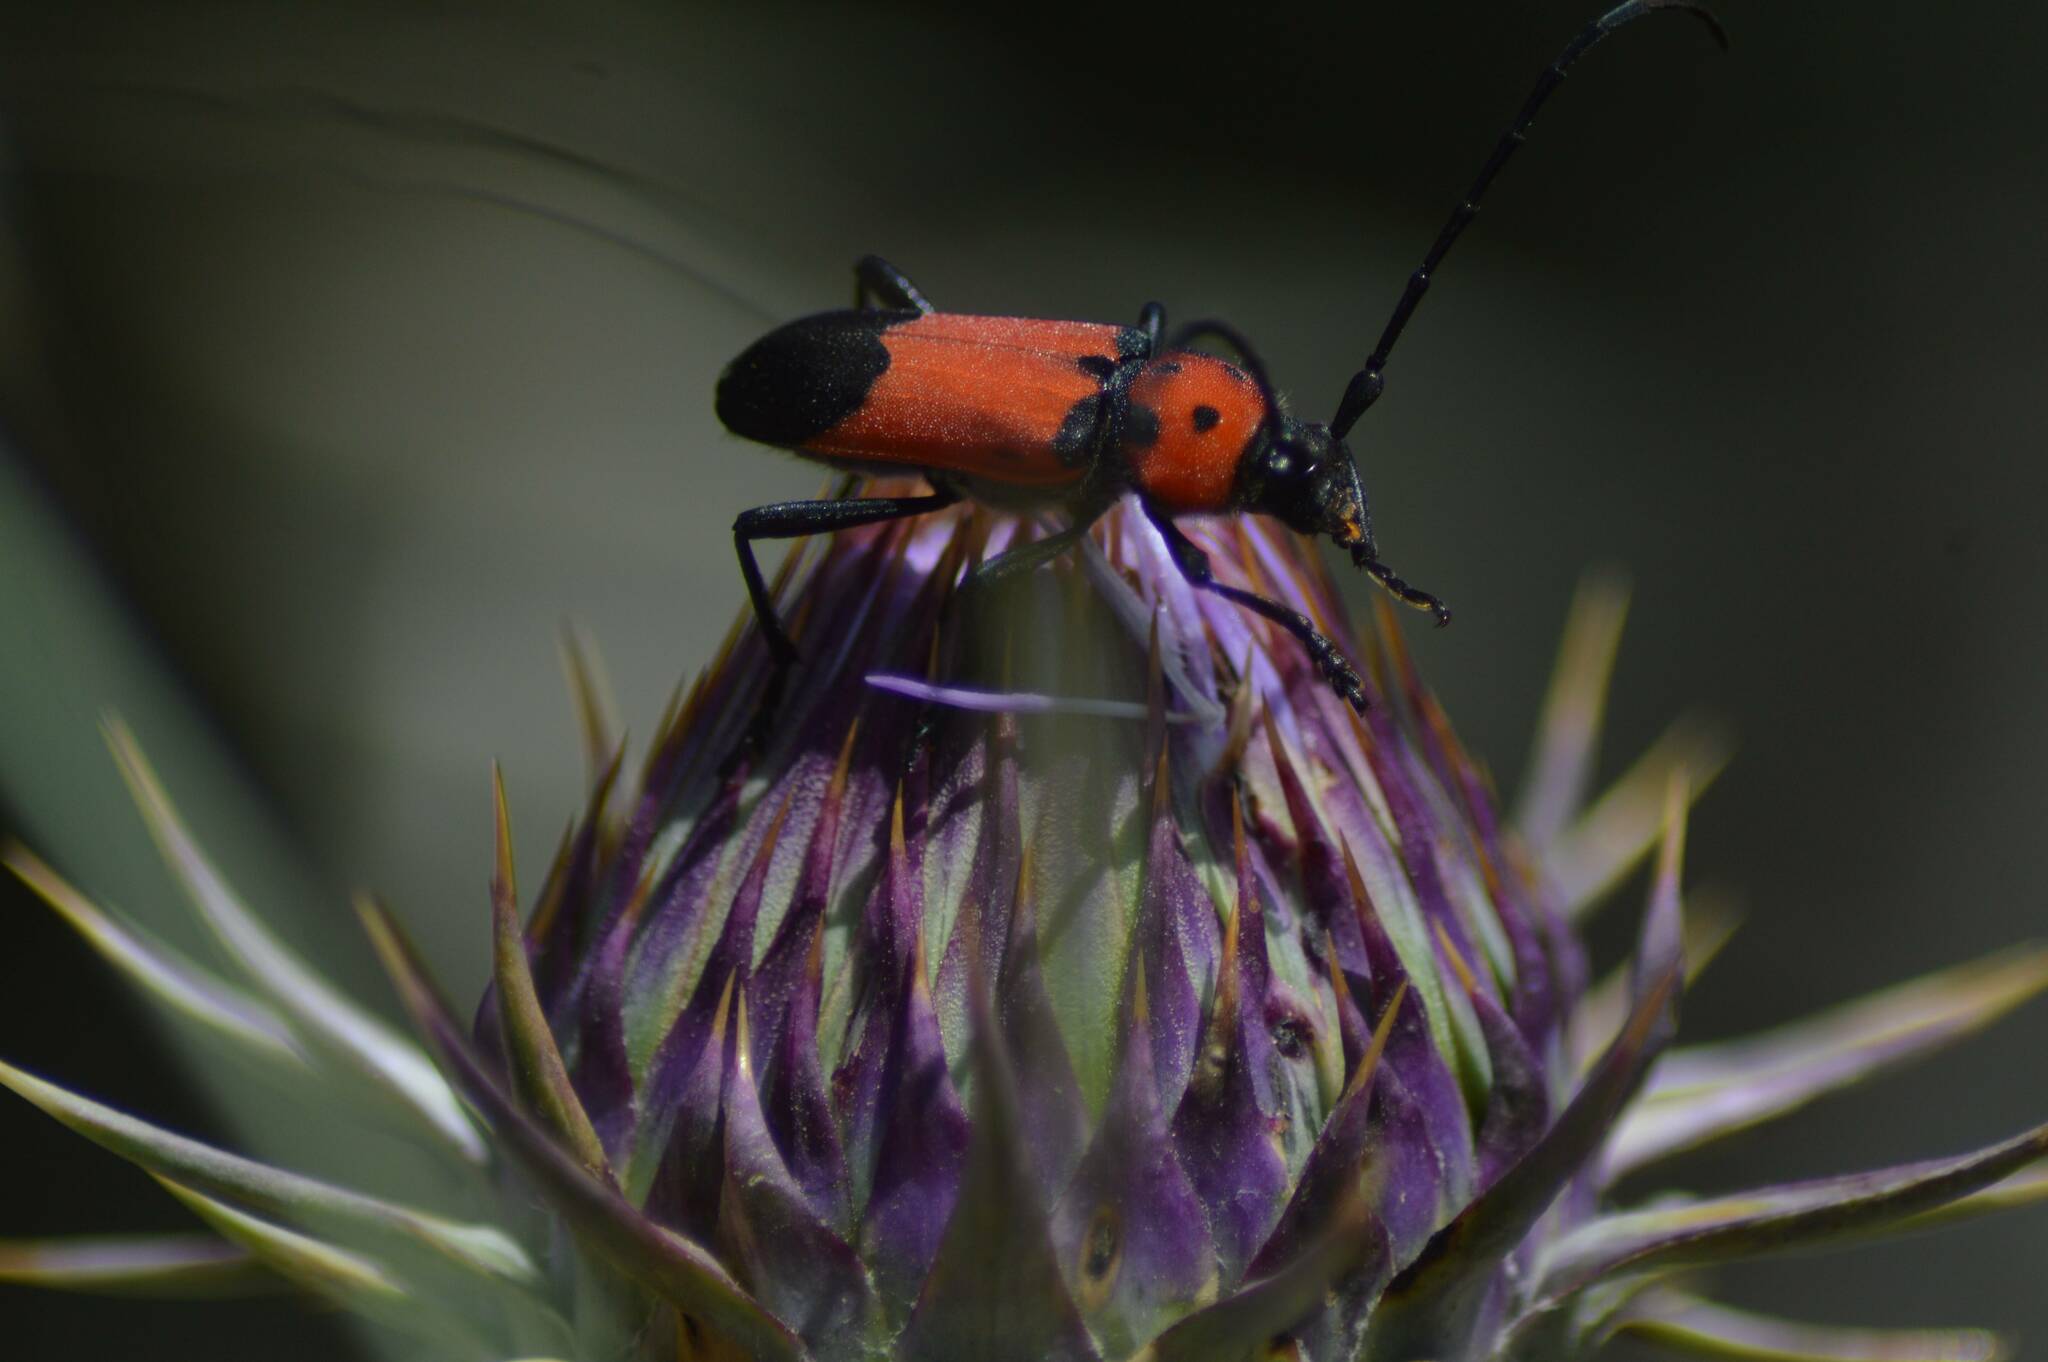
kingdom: Animalia
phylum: Arthropoda
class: Insecta
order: Coleoptera
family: Cerambycidae
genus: Purpuricenus
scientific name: Purpuricenus desfontainii
